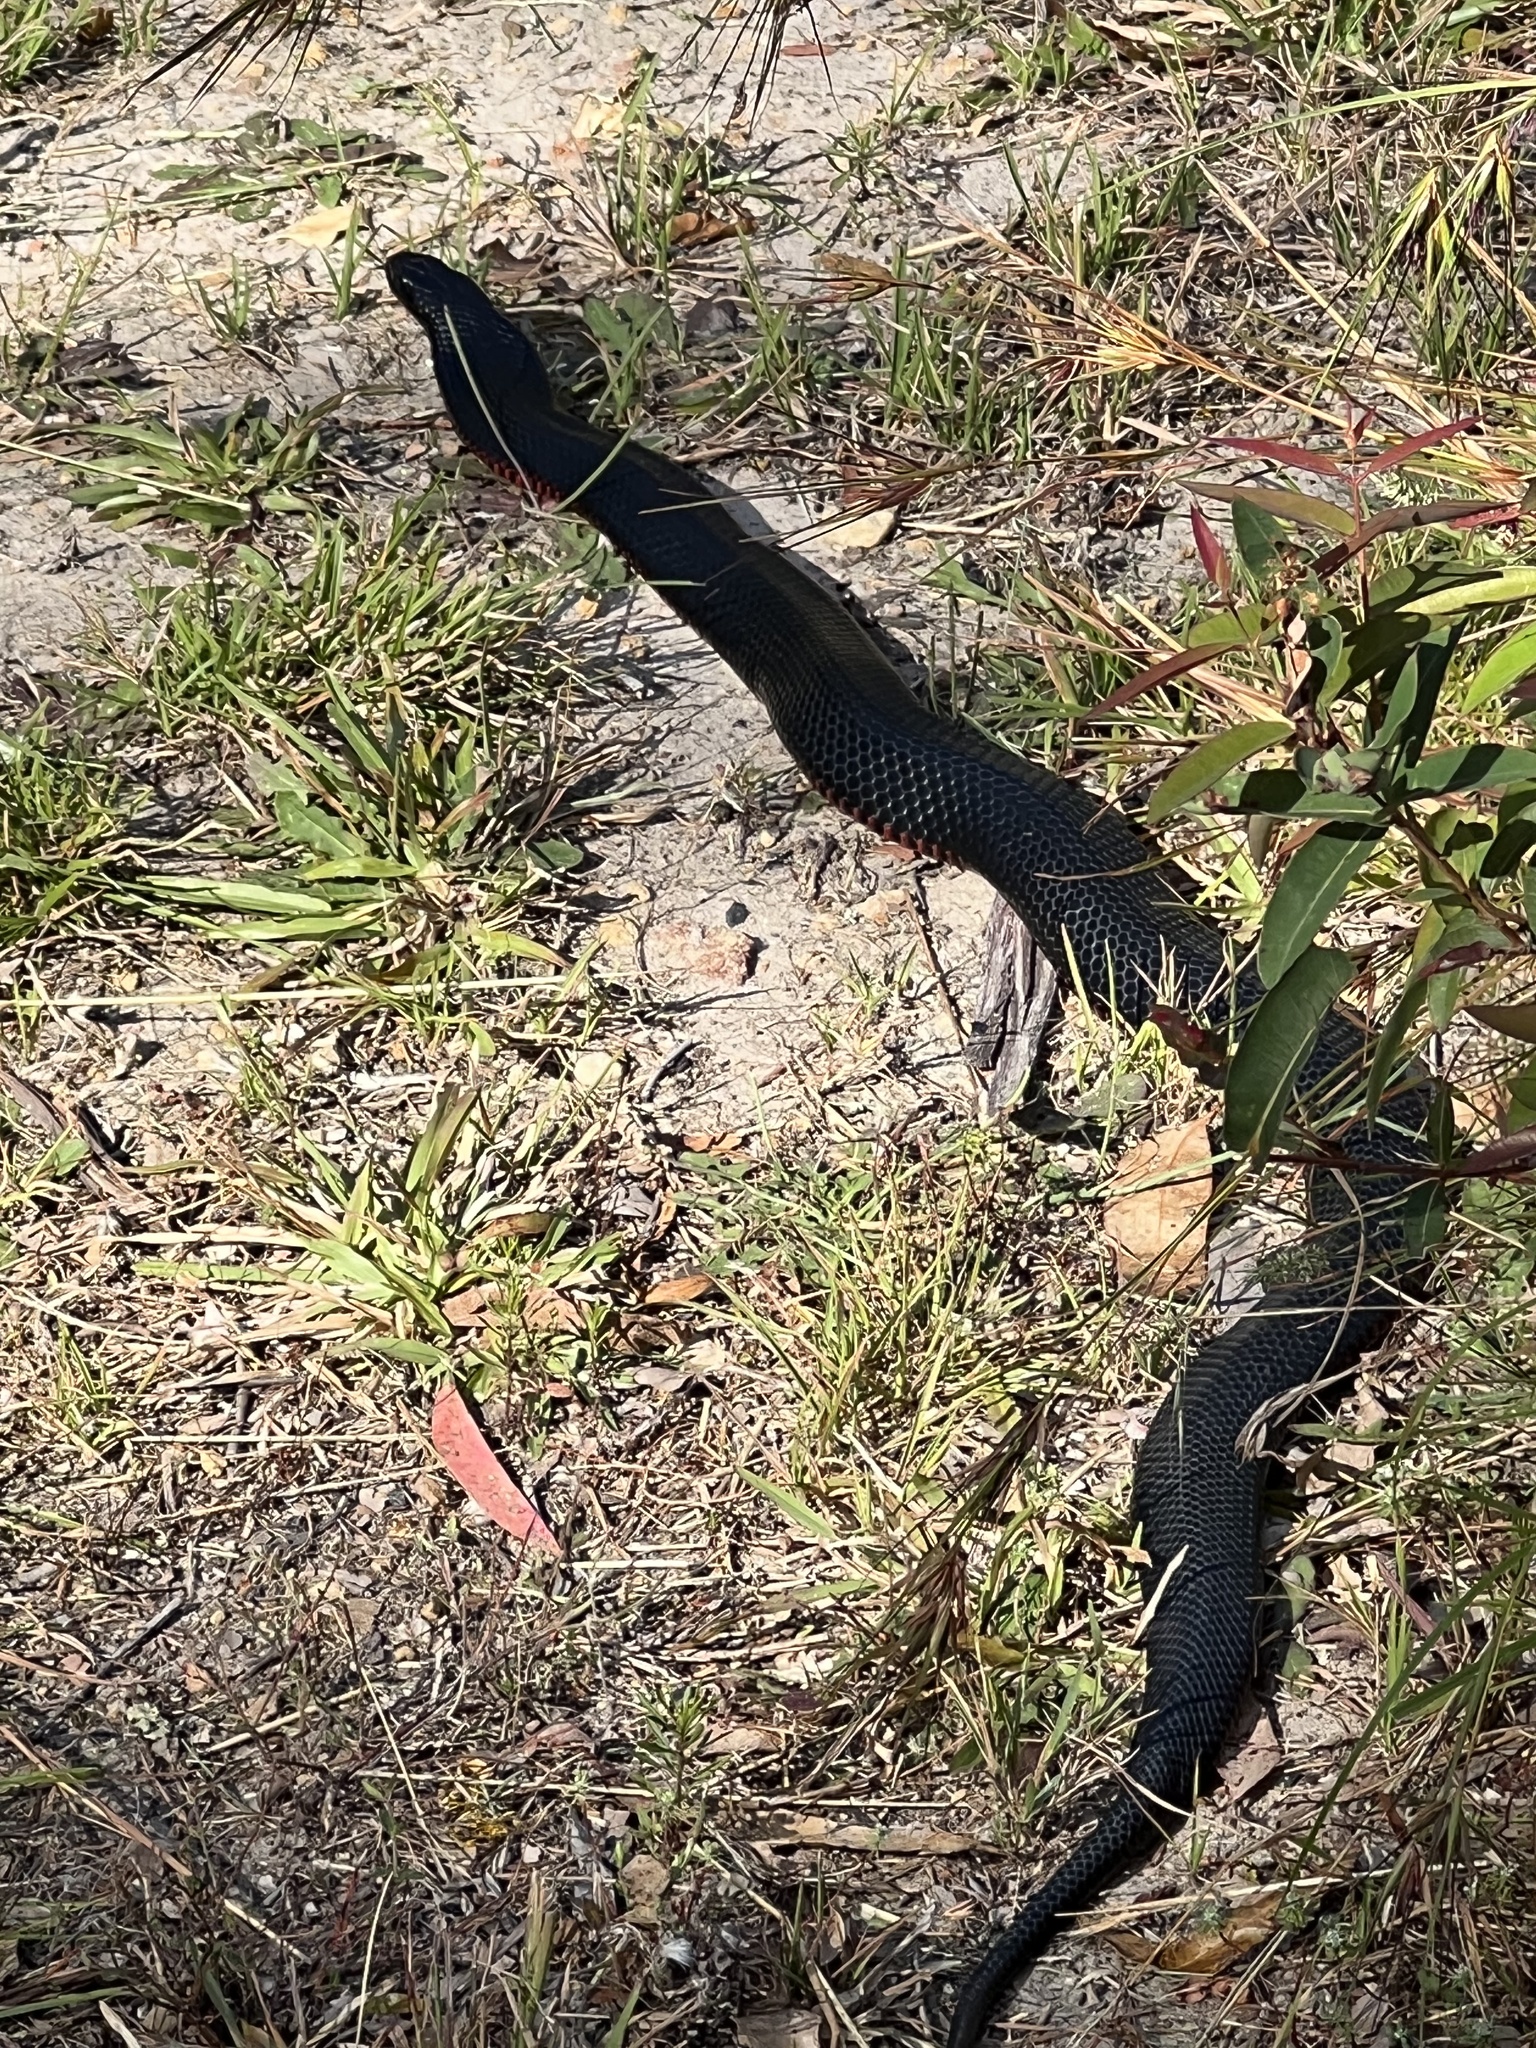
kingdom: Animalia
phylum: Chordata
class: Squamata
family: Elapidae
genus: Pseudechis
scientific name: Pseudechis porphyriacus
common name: Australian black snake
